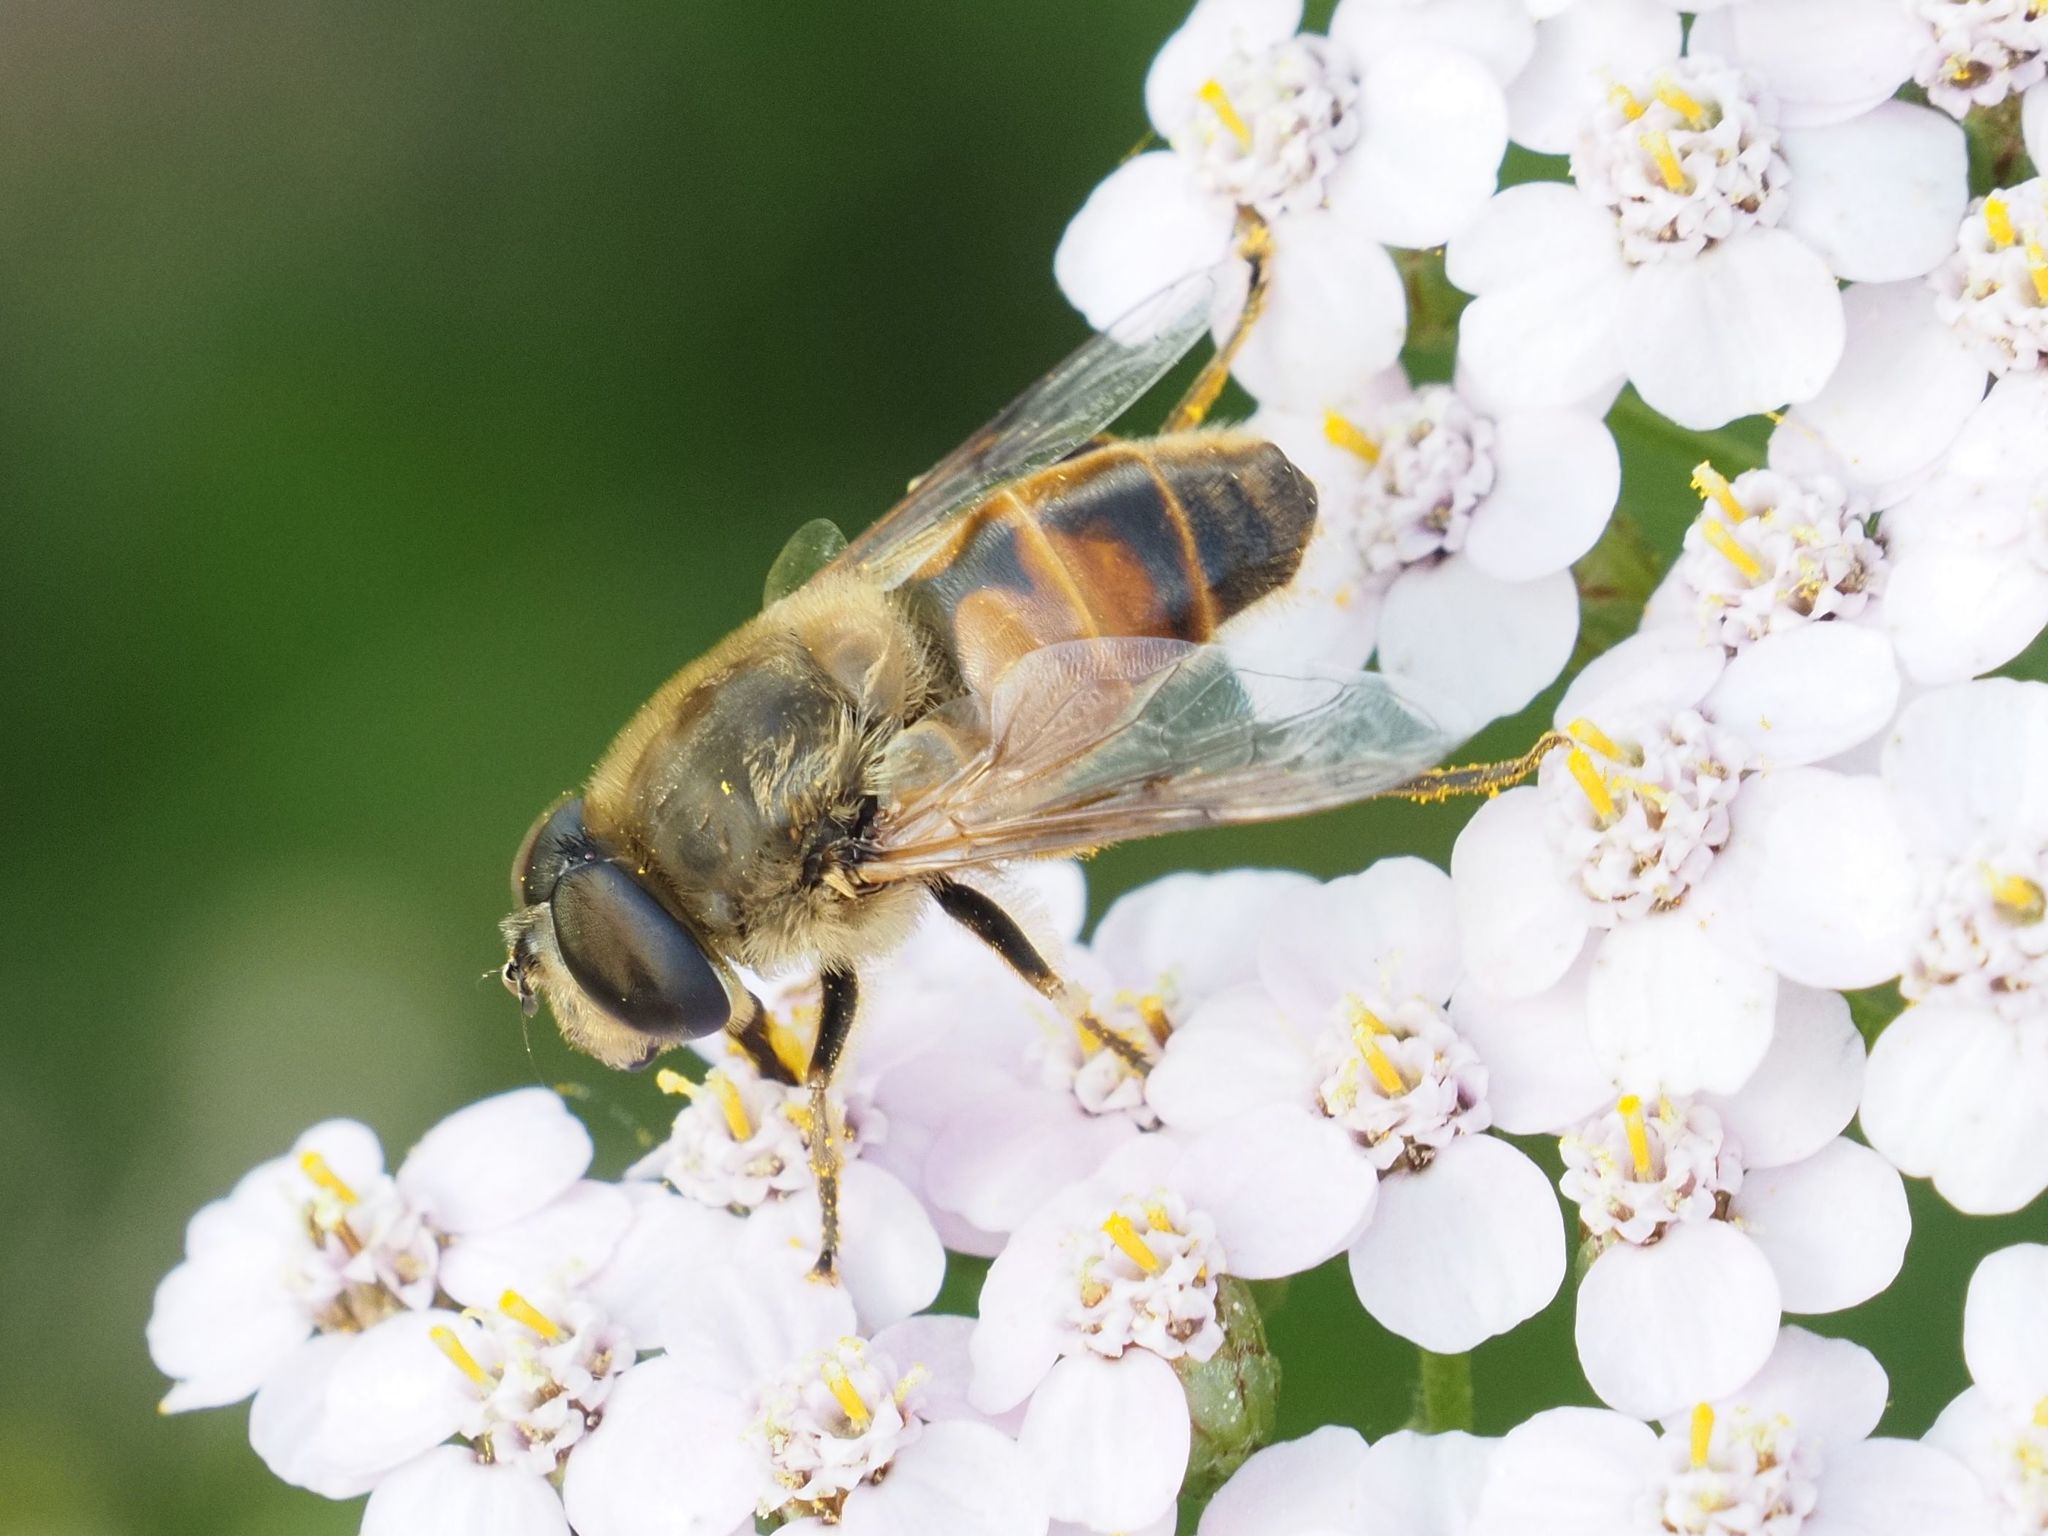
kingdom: Animalia
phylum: Arthropoda
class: Insecta
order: Diptera
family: Syrphidae
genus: Eristalis
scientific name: Eristalis tenax
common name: Drone fly
